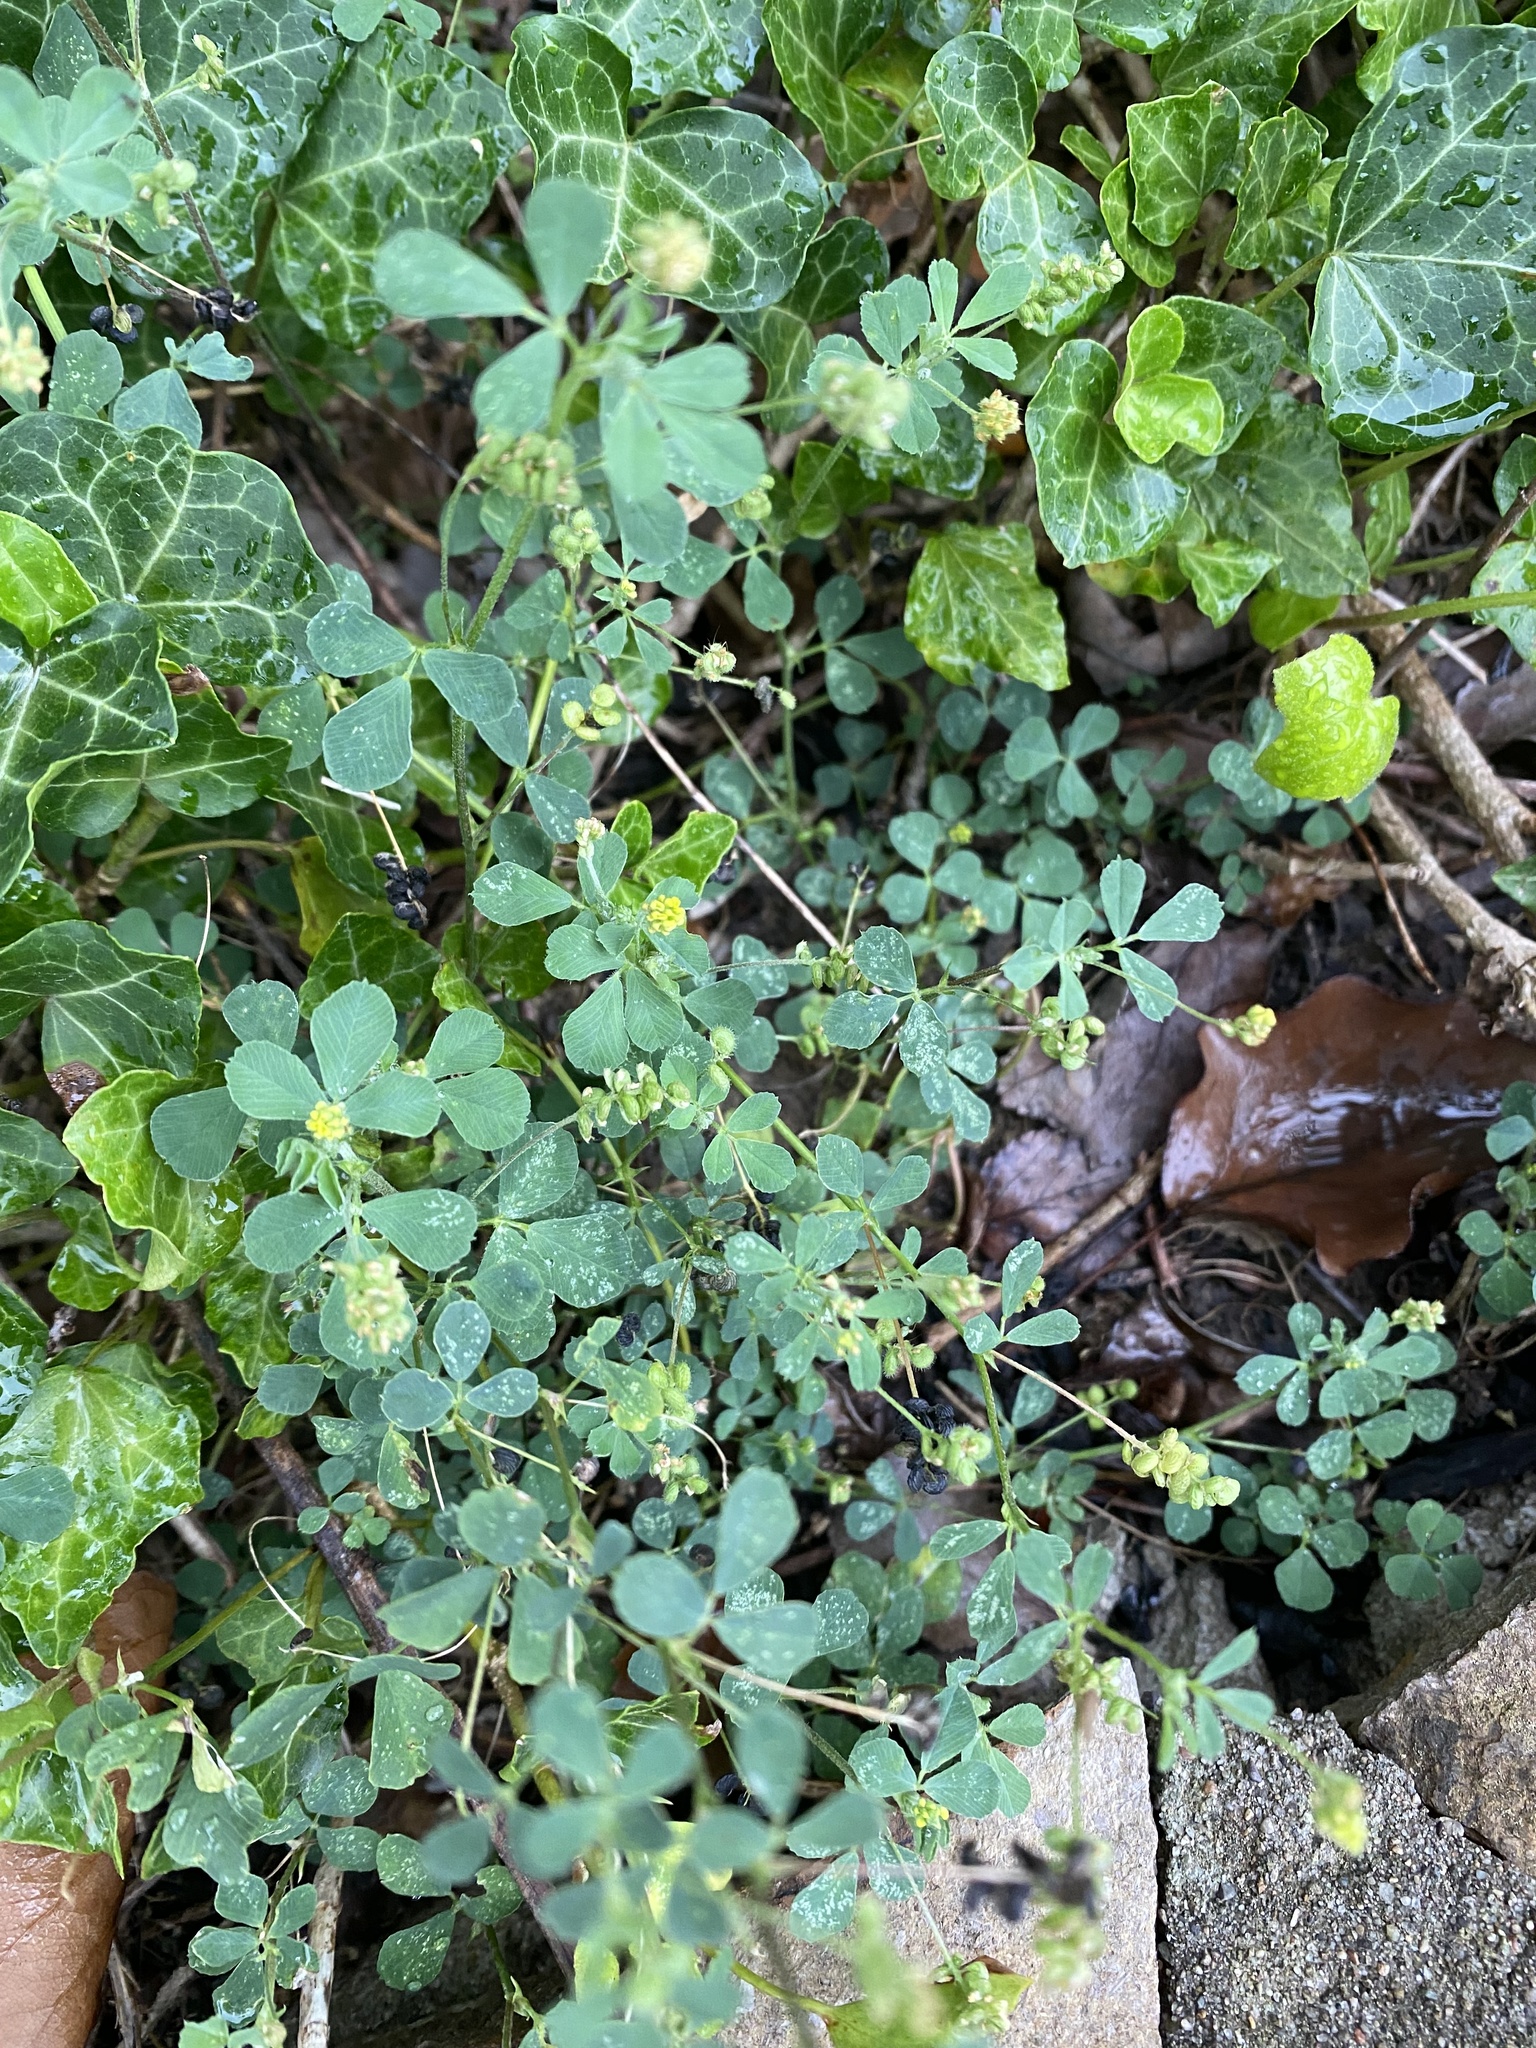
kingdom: Plantae
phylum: Tracheophyta
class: Magnoliopsida
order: Fabales
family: Fabaceae
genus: Medicago
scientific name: Medicago lupulina
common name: Black medick
